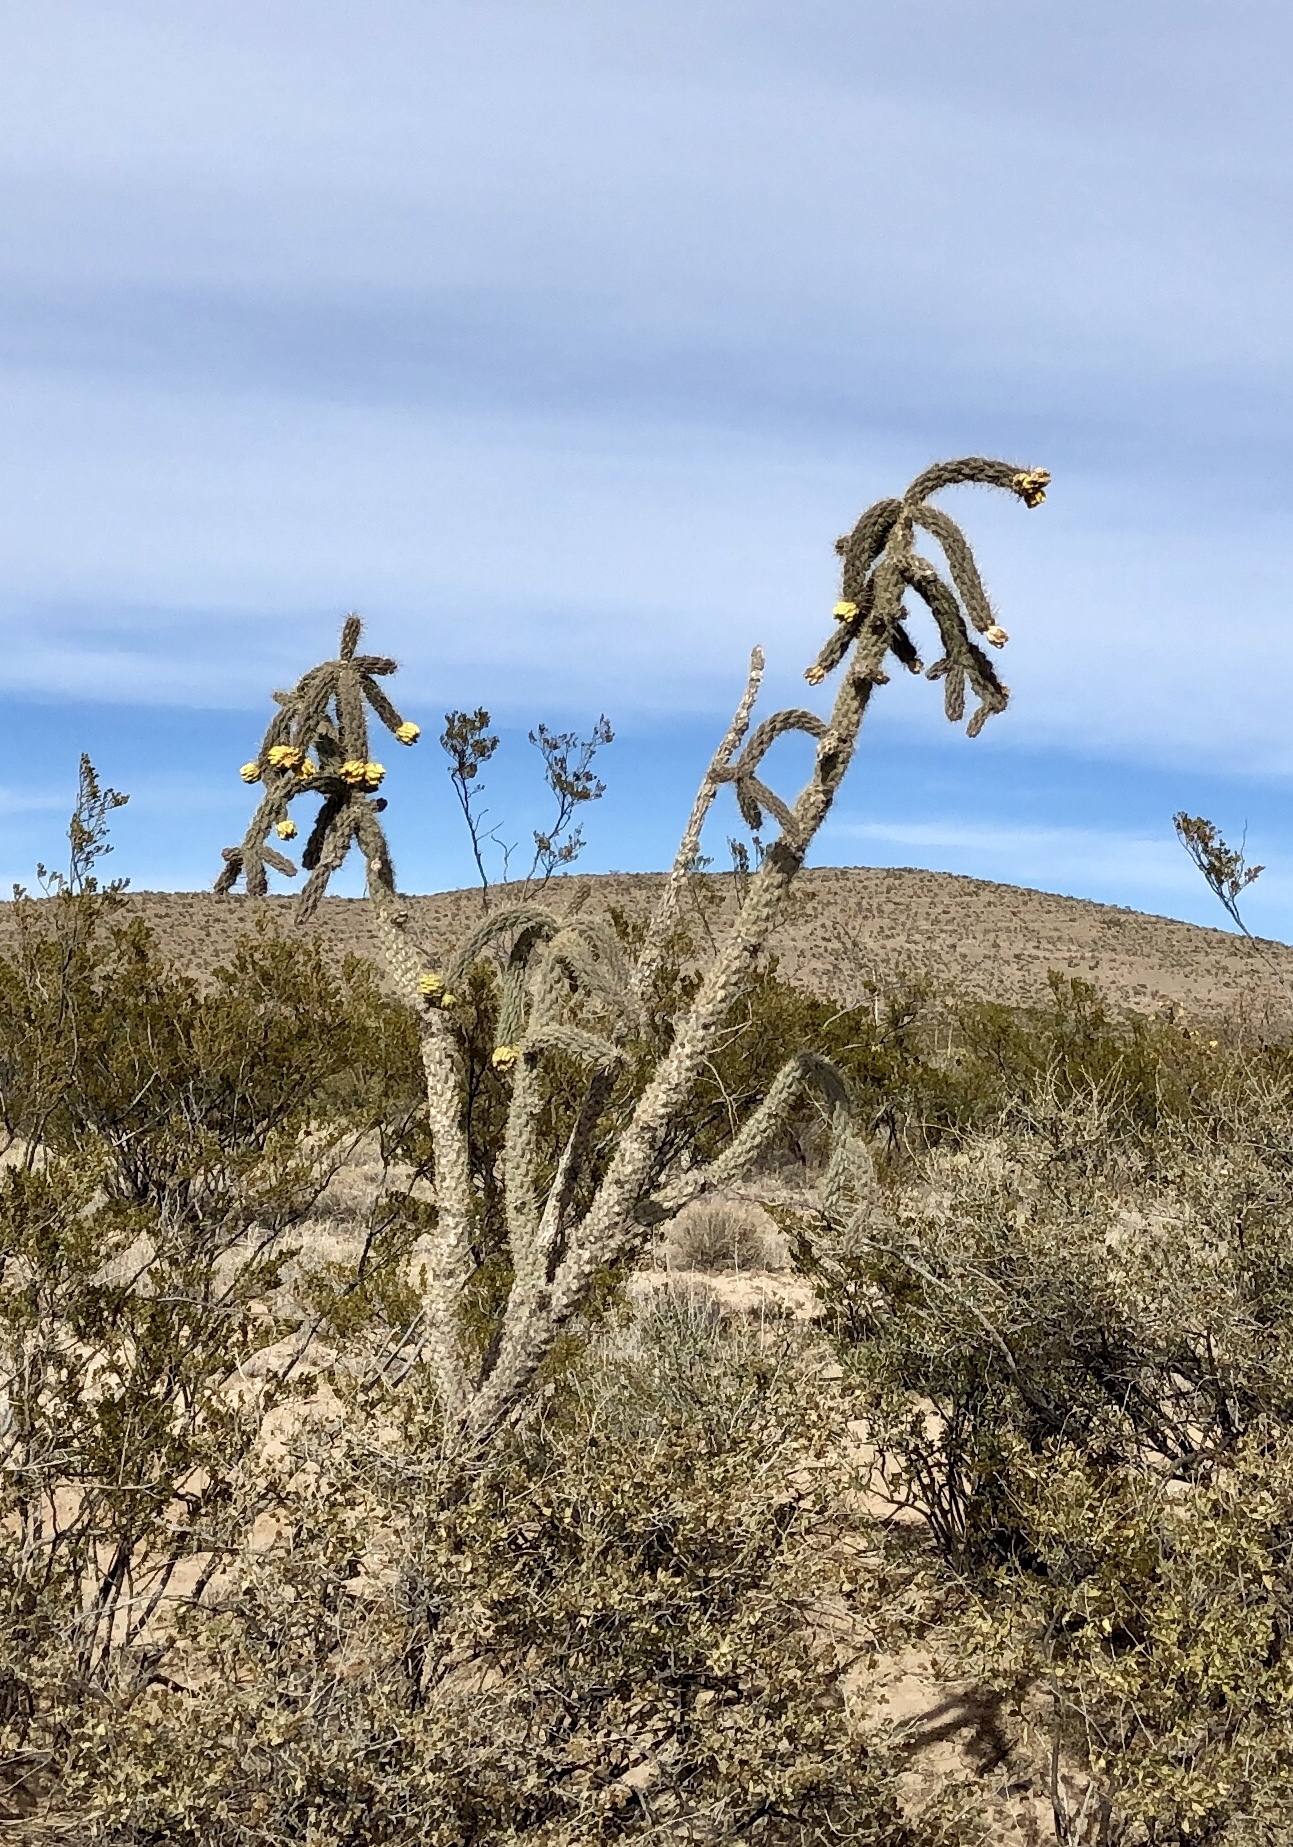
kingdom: Plantae
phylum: Tracheophyta
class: Magnoliopsida
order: Caryophyllales
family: Cactaceae
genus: Cylindropuntia
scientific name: Cylindropuntia imbricata
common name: Candelabrum cactus
